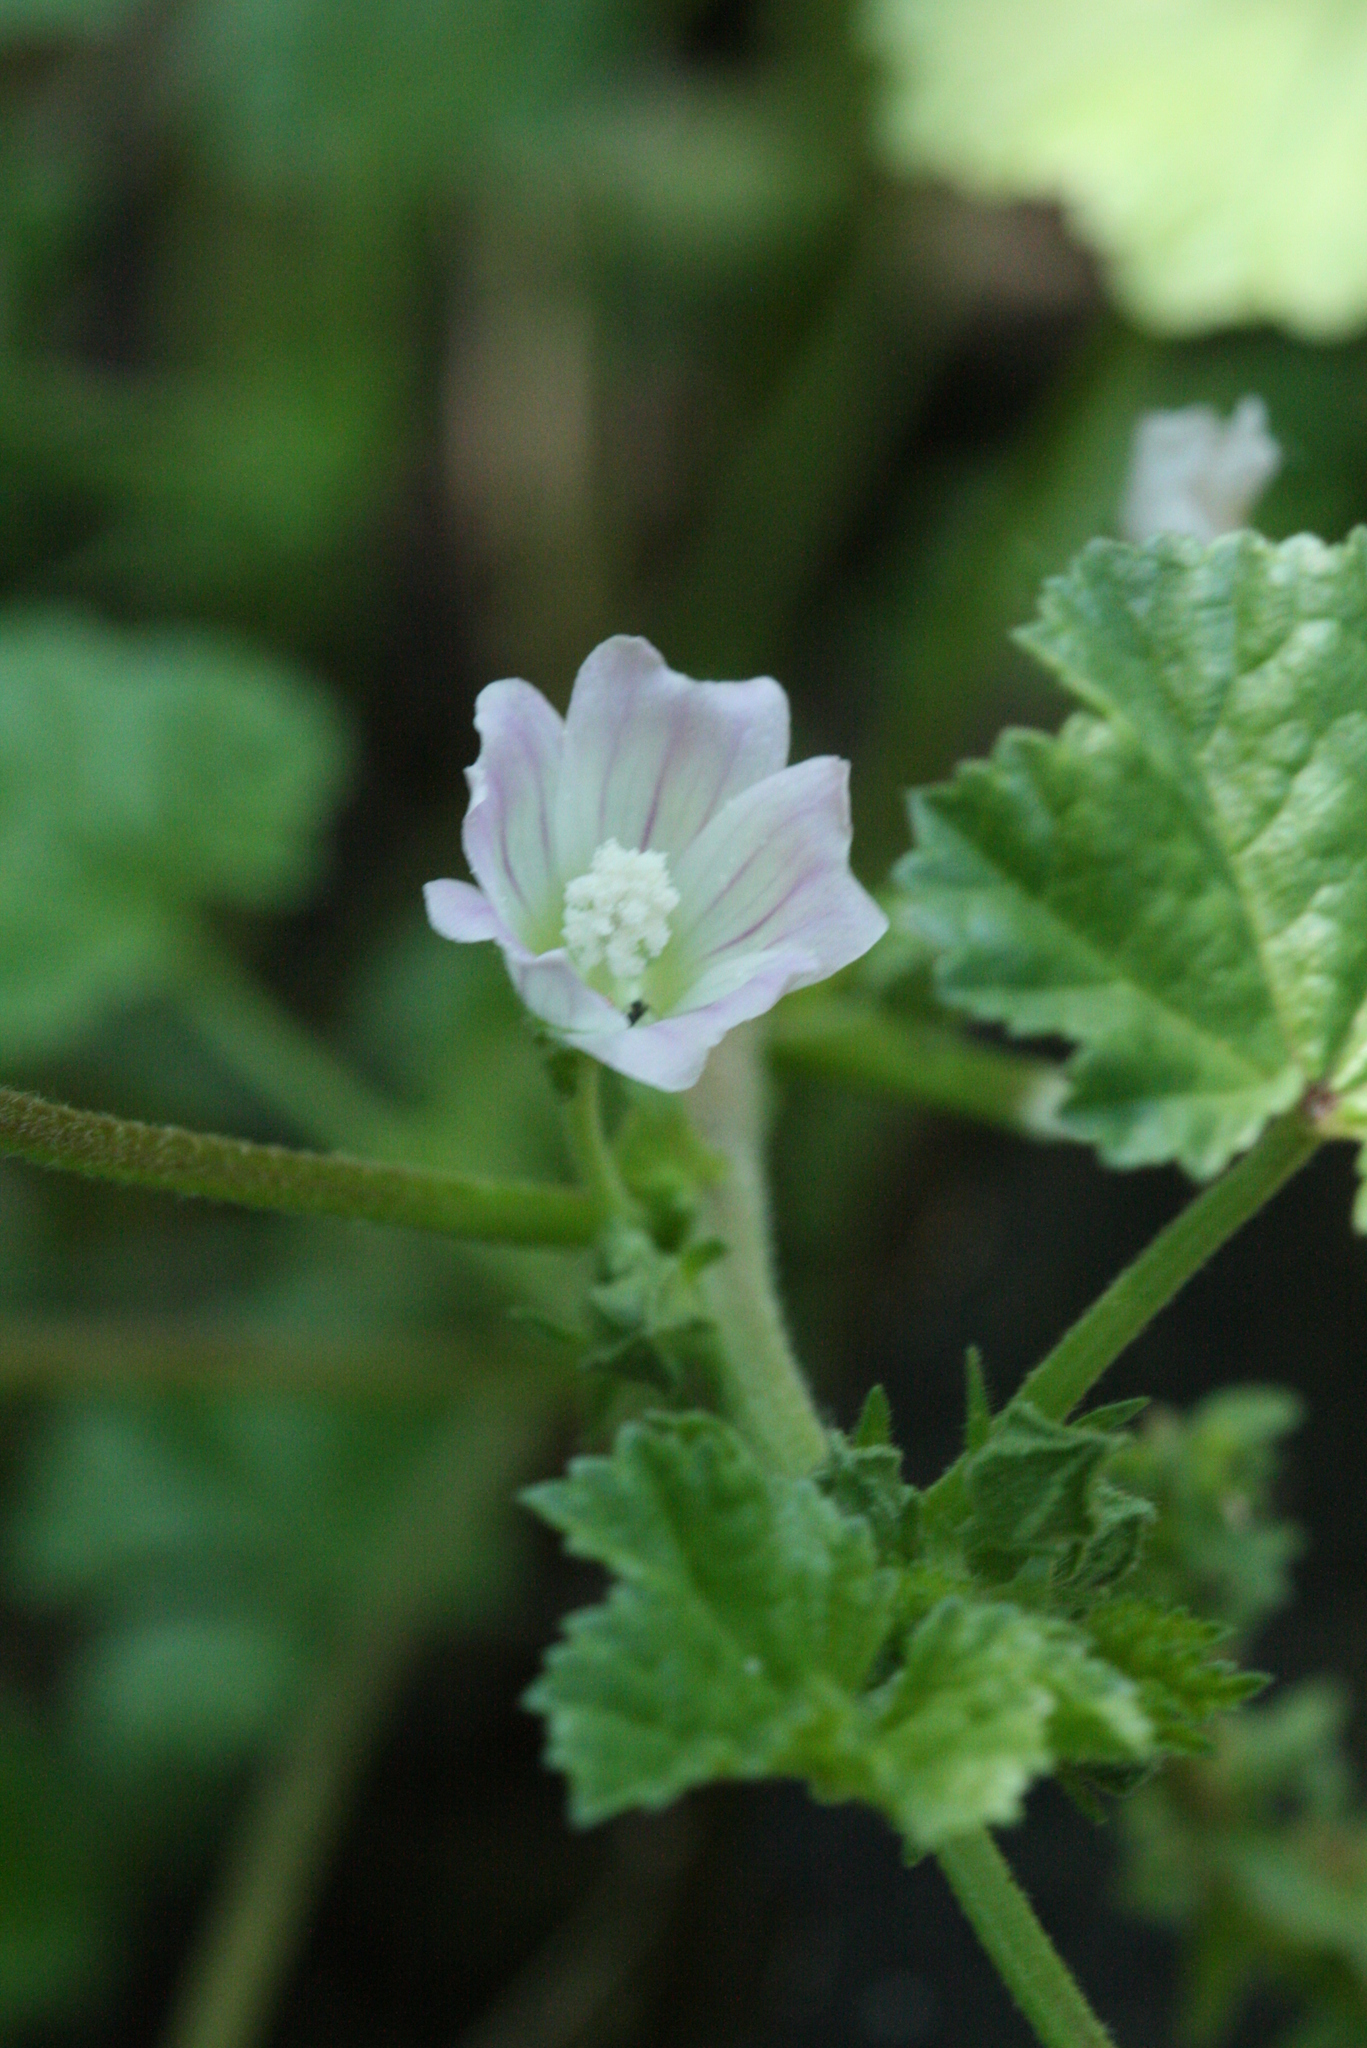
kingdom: Plantae
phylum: Tracheophyta
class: Magnoliopsida
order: Malvales
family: Malvaceae
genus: Malva
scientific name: Malva neglecta
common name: Common mallow
